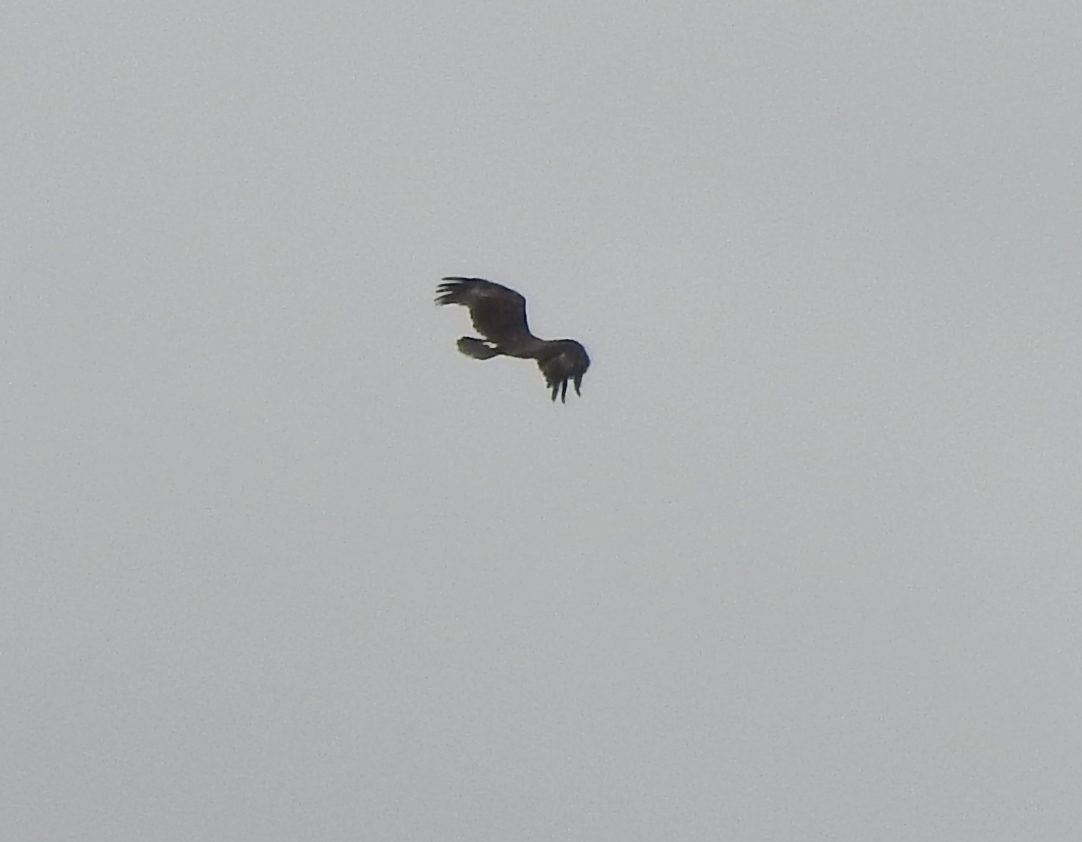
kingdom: Animalia
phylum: Chordata
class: Aves
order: Accipitriformes
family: Accipitridae
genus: Aquila
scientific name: Aquila clanga
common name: Greater spotted eagle
